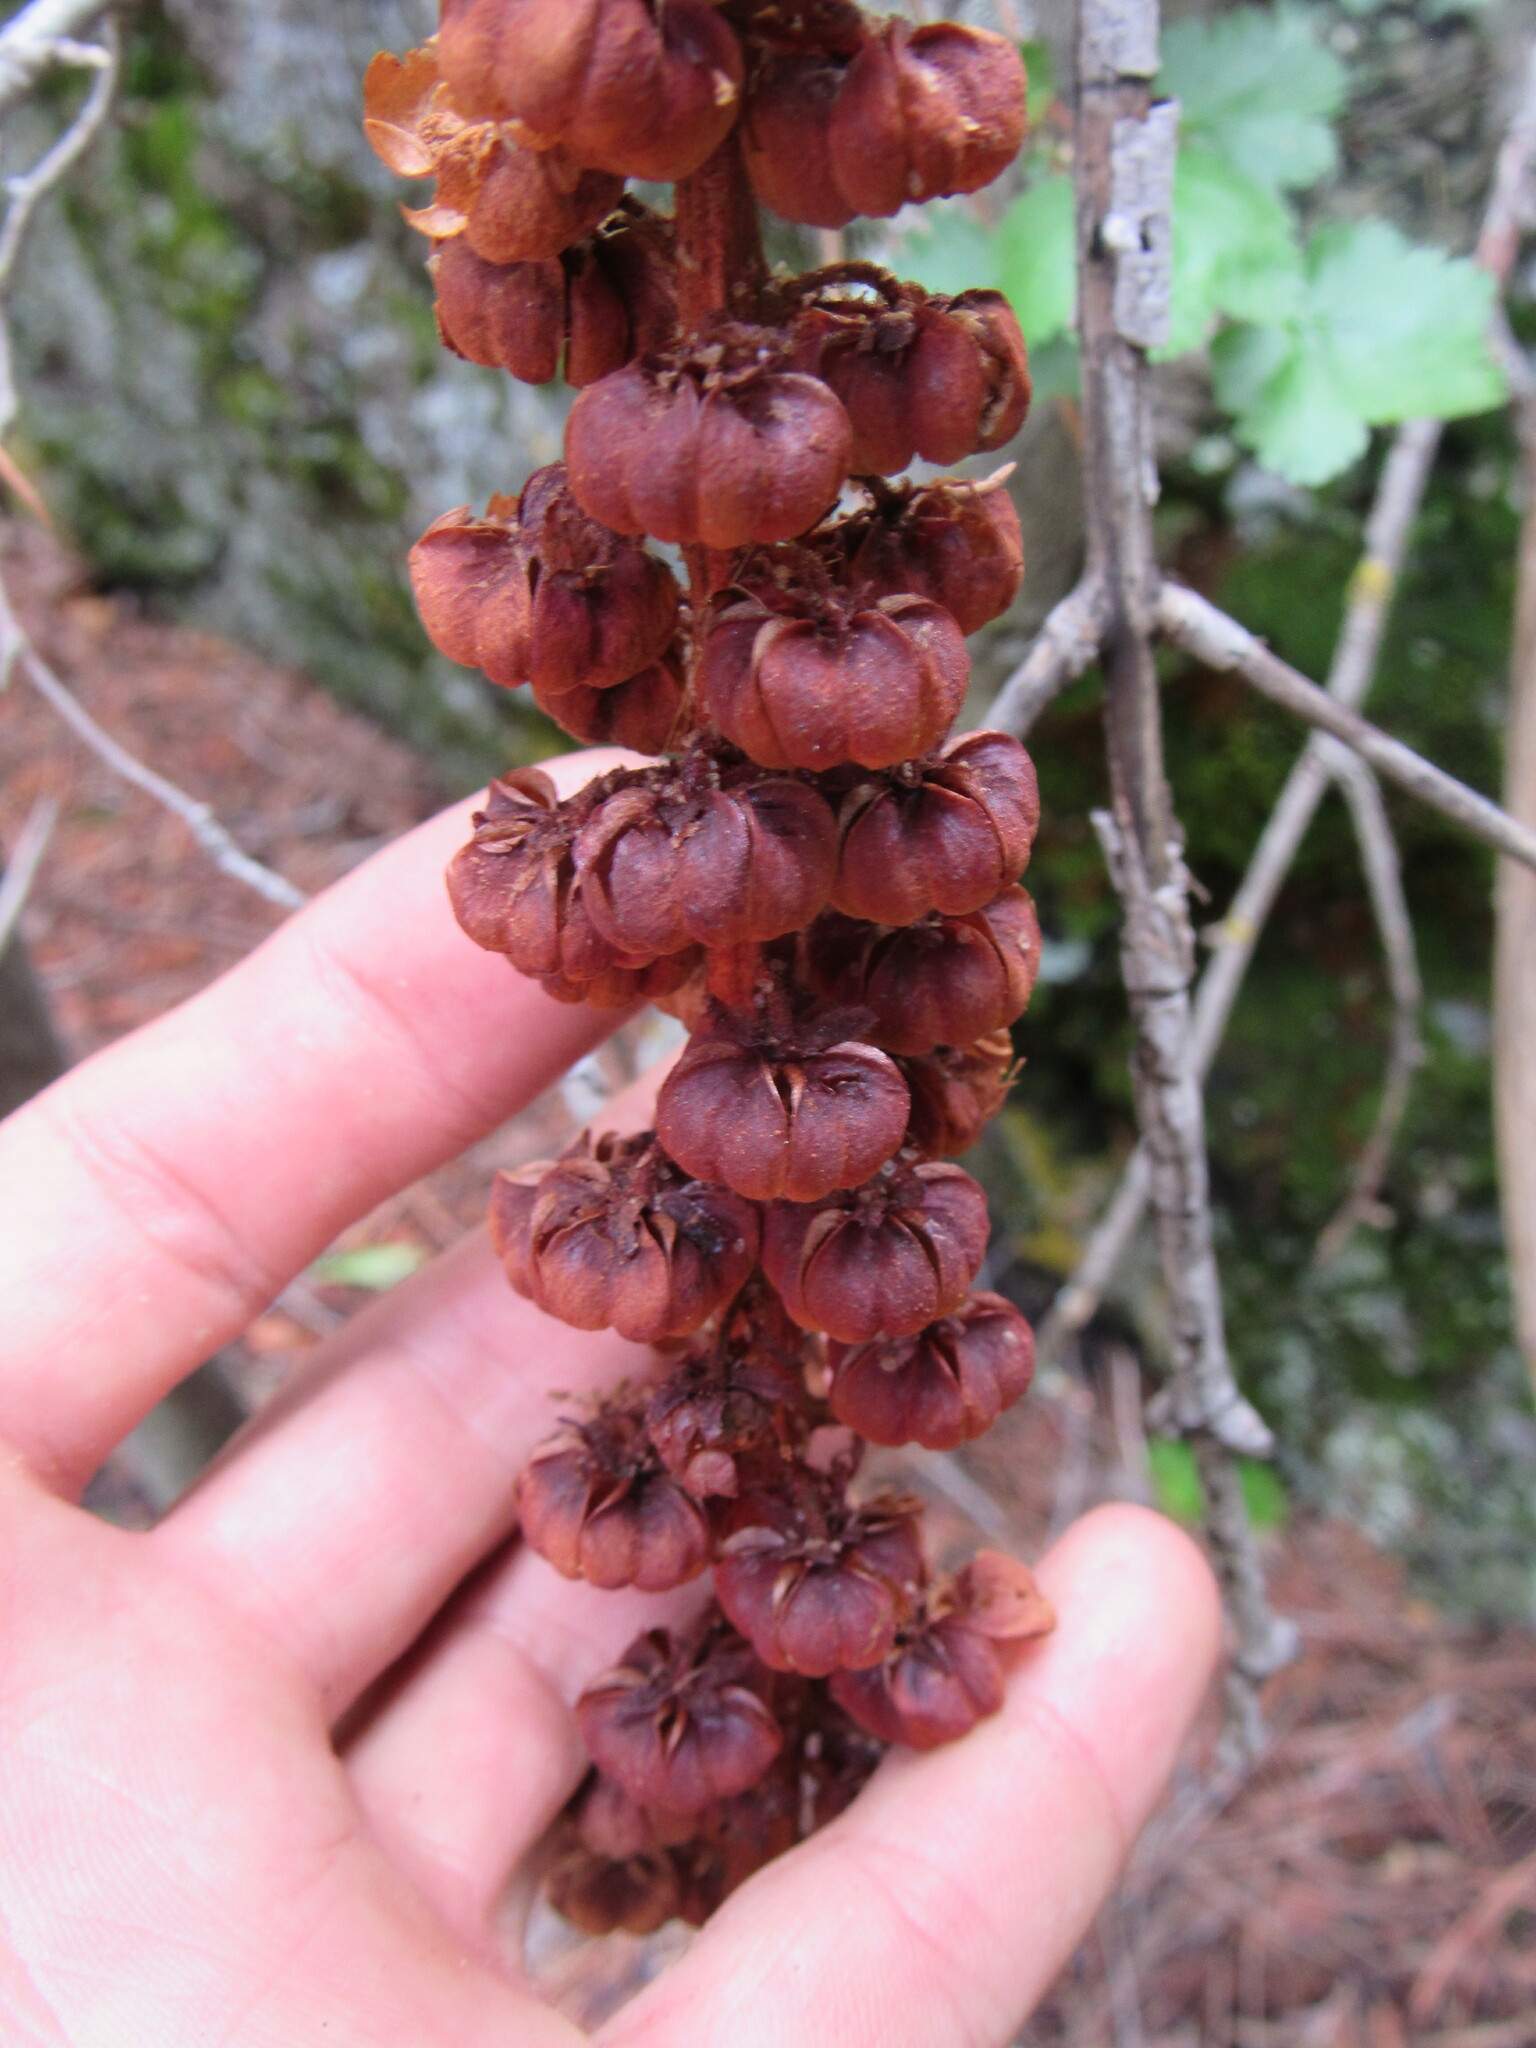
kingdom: Plantae
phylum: Tracheophyta
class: Magnoliopsida
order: Ericales
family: Ericaceae
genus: Pterospora
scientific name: Pterospora andromedea
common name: Giant bird's-nest
